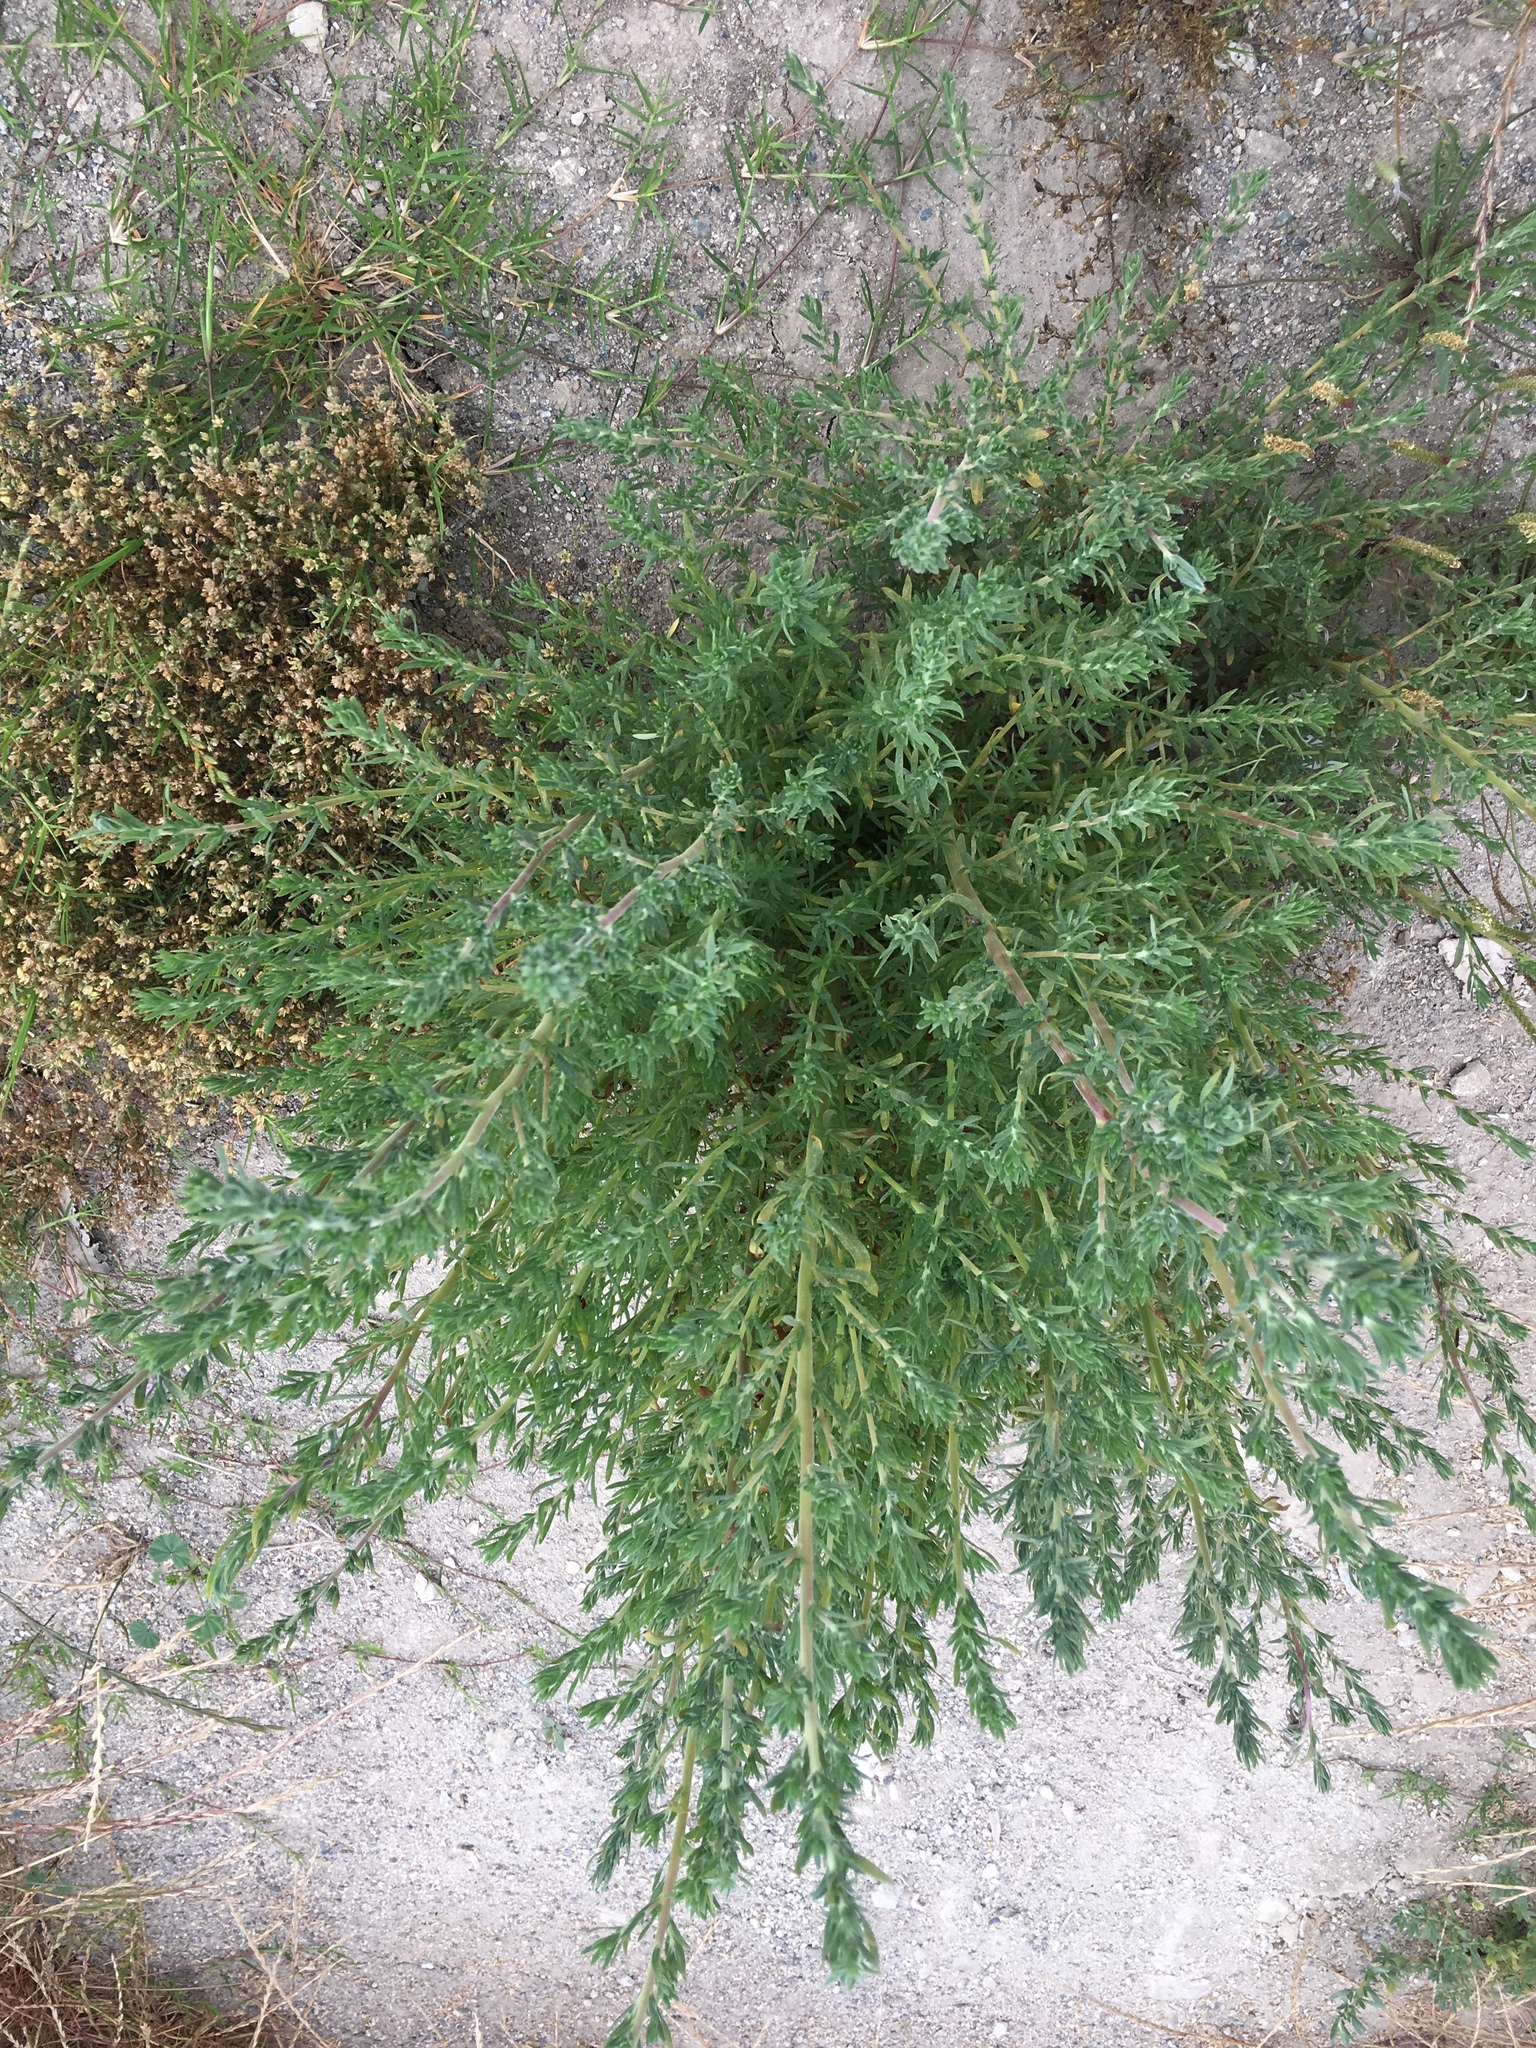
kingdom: Plantae
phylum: Tracheophyta
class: Magnoliopsida
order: Caryophyllales
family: Amaranthaceae
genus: Bassia
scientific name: Bassia hyssopifolia
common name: Fivehorn smotherweed
